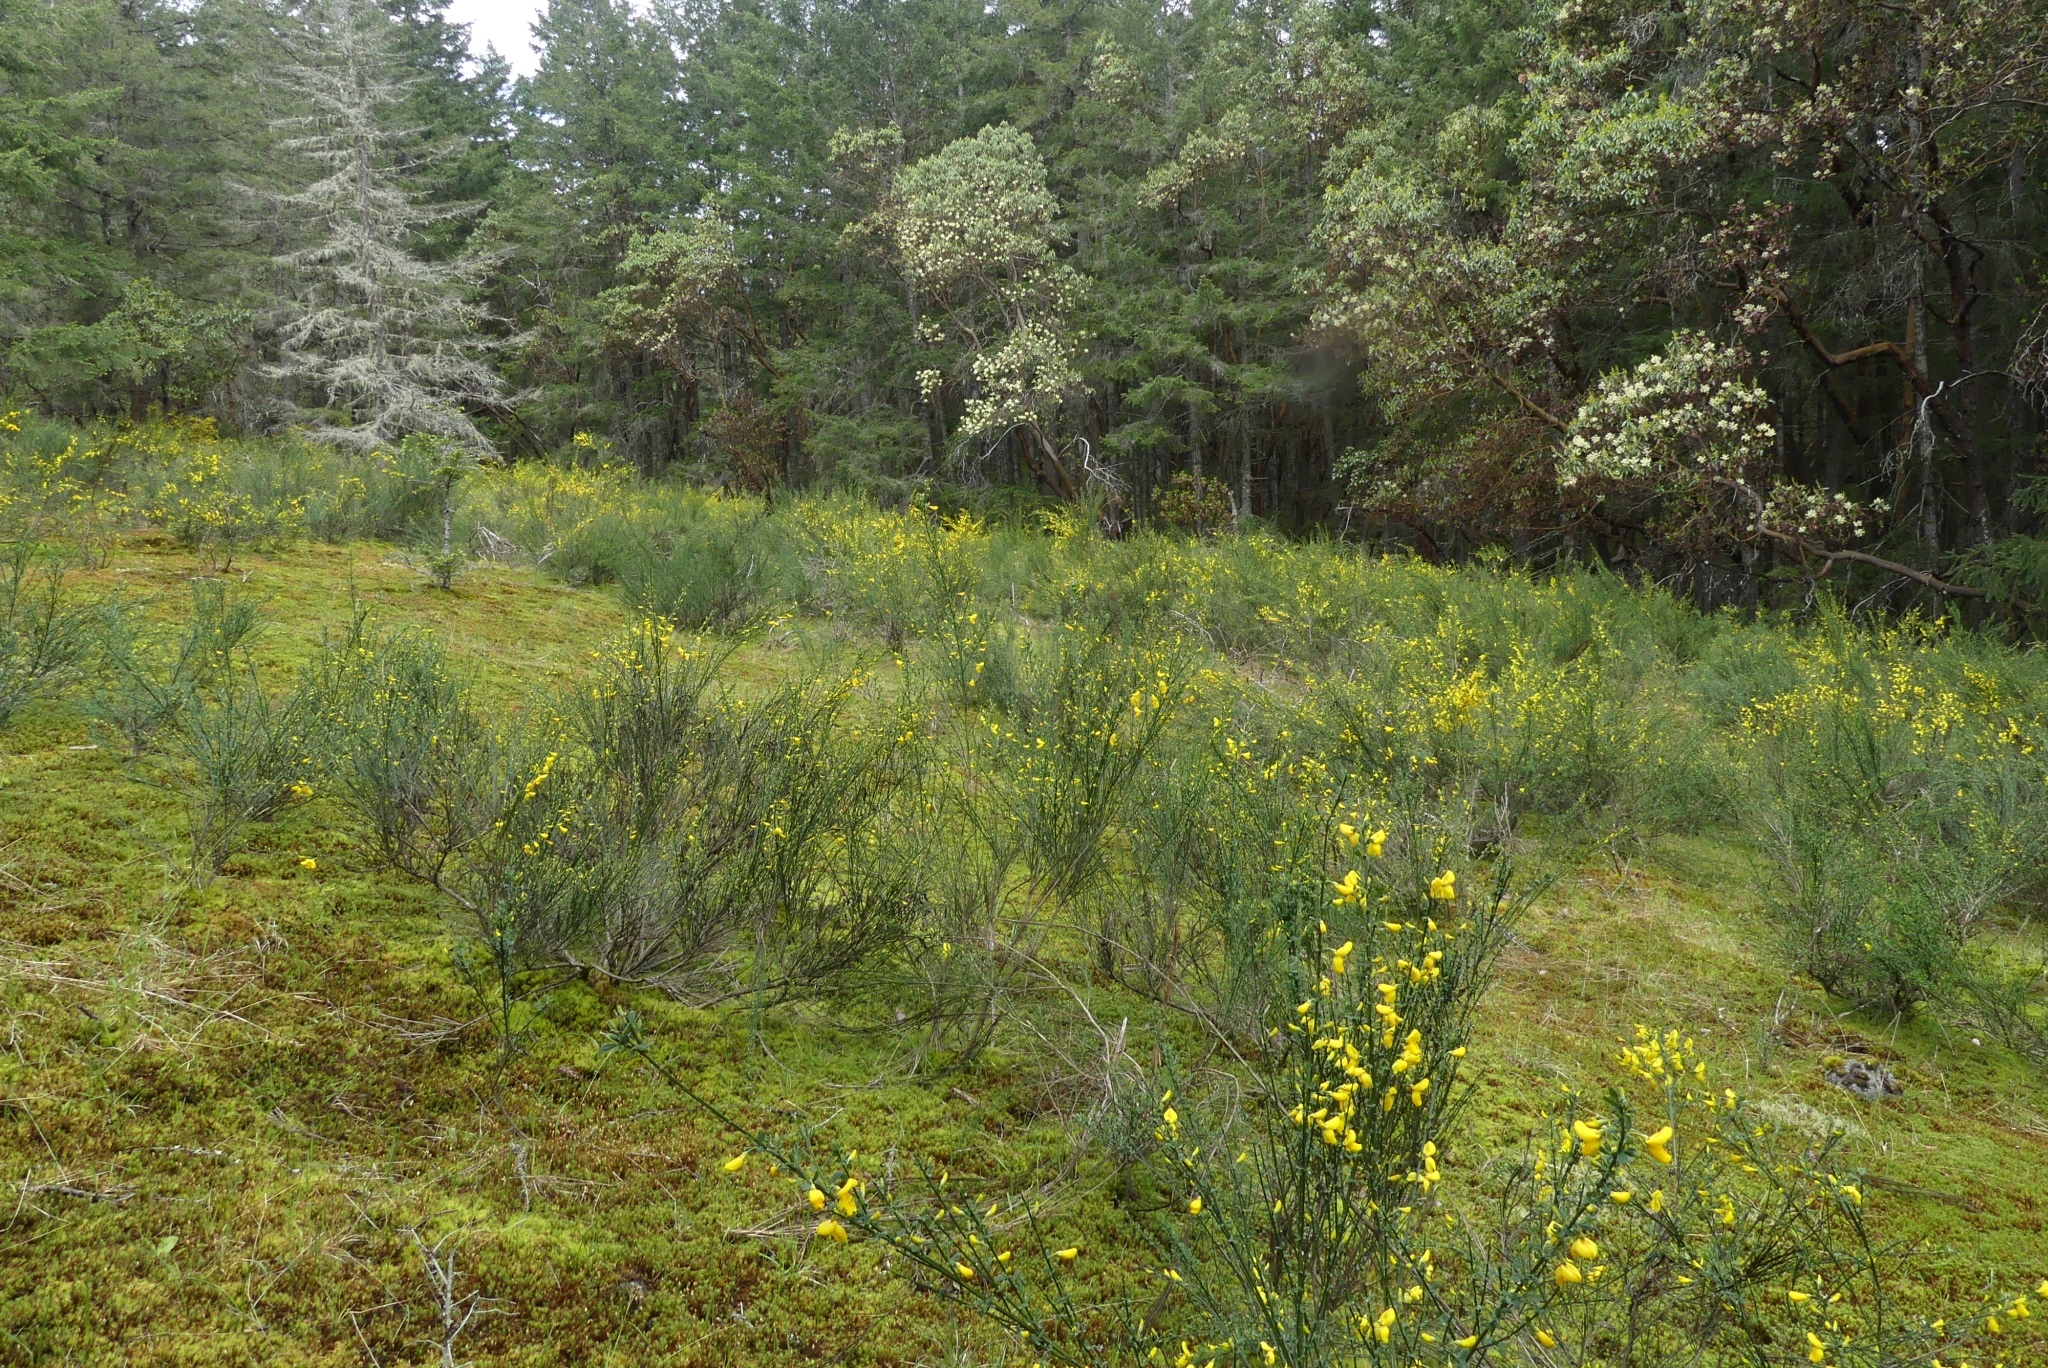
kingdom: Plantae
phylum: Tracheophyta
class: Magnoliopsida
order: Fabales
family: Fabaceae
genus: Cytisus
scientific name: Cytisus scoparius
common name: Scotch broom
